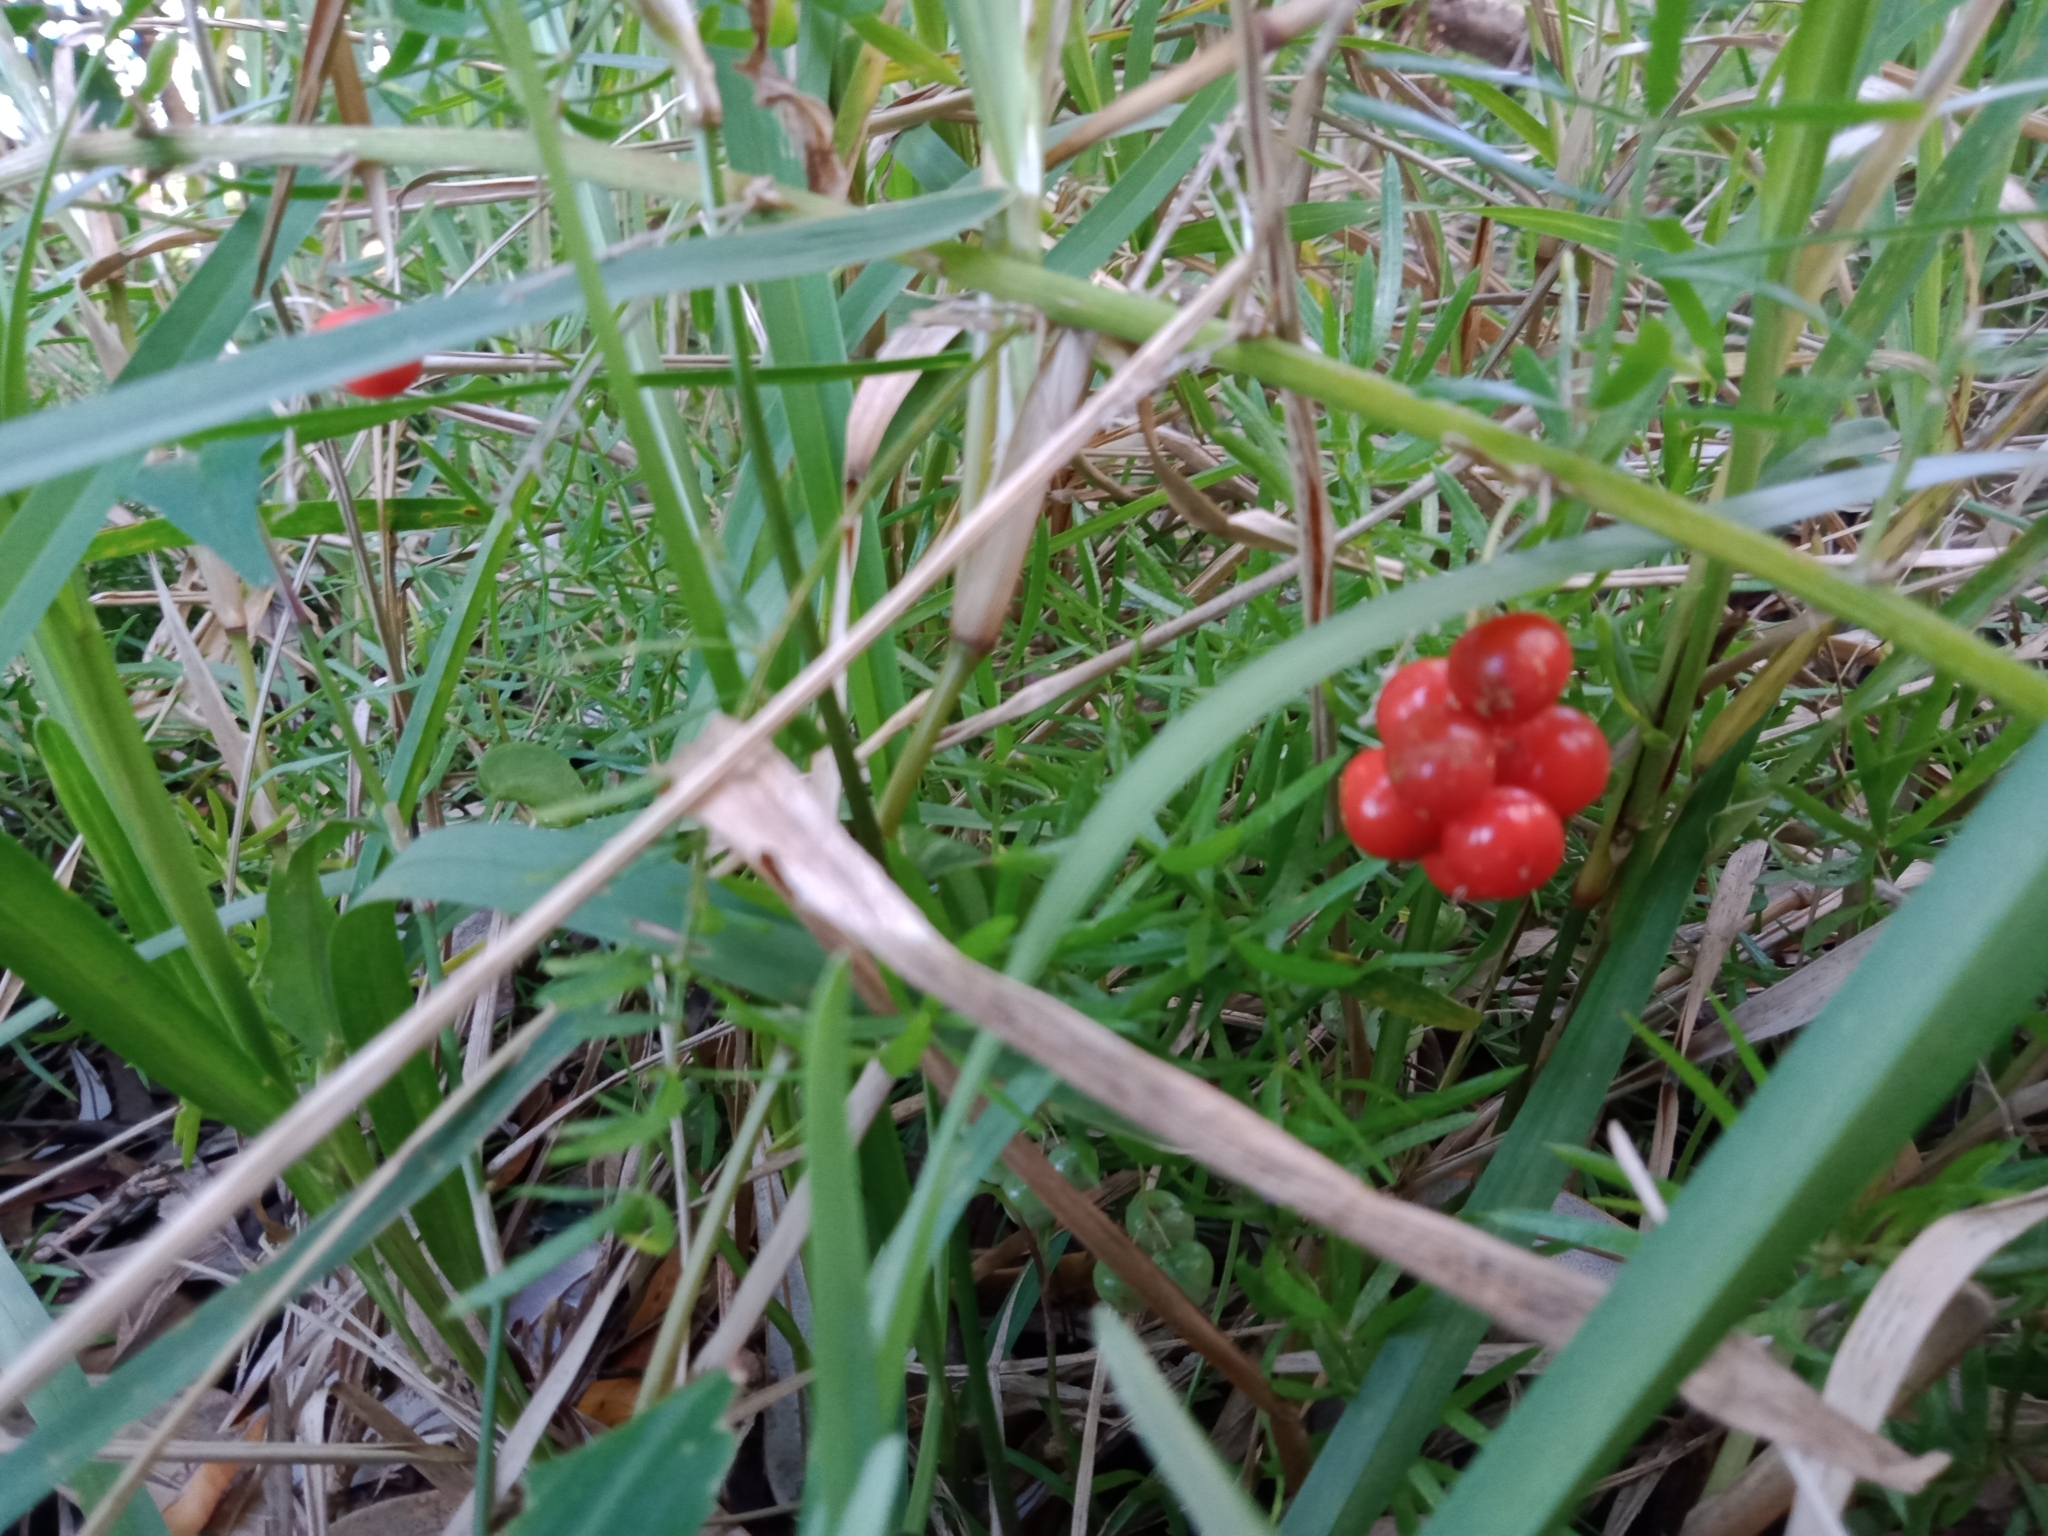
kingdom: Plantae
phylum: Tracheophyta
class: Liliopsida
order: Asparagales
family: Asparagaceae
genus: Asparagus
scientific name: Asparagus aethiopicus
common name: Sprenger's asparagus fern
